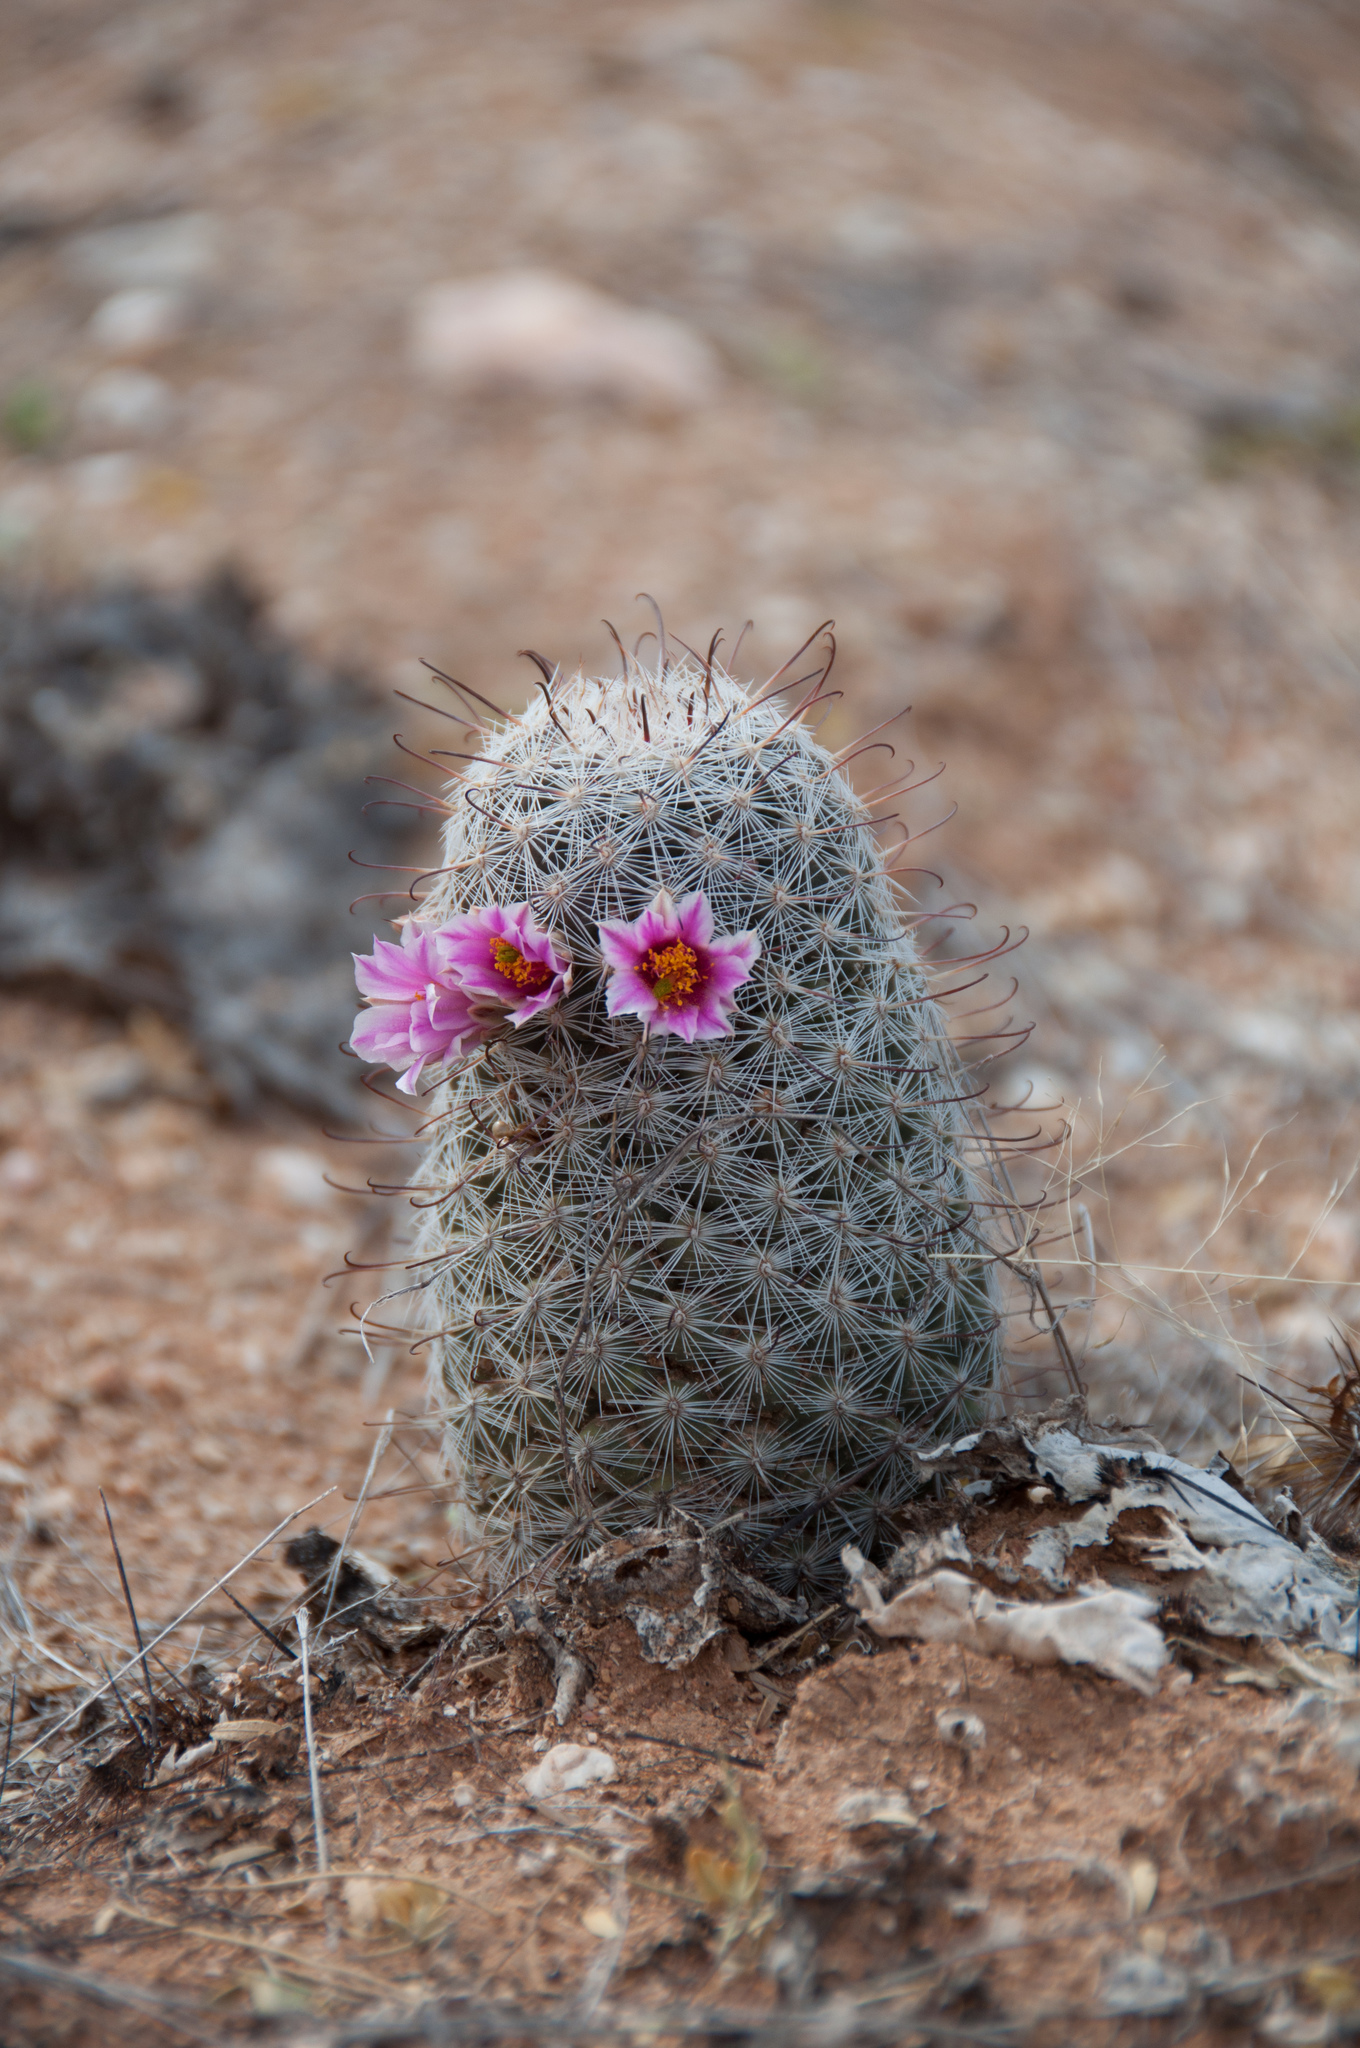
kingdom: Plantae
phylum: Tracheophyta
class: Magnoliopsida
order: Caryophyllales
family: Cactaceae
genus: Cochemiea
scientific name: Cochemiea grahamii
